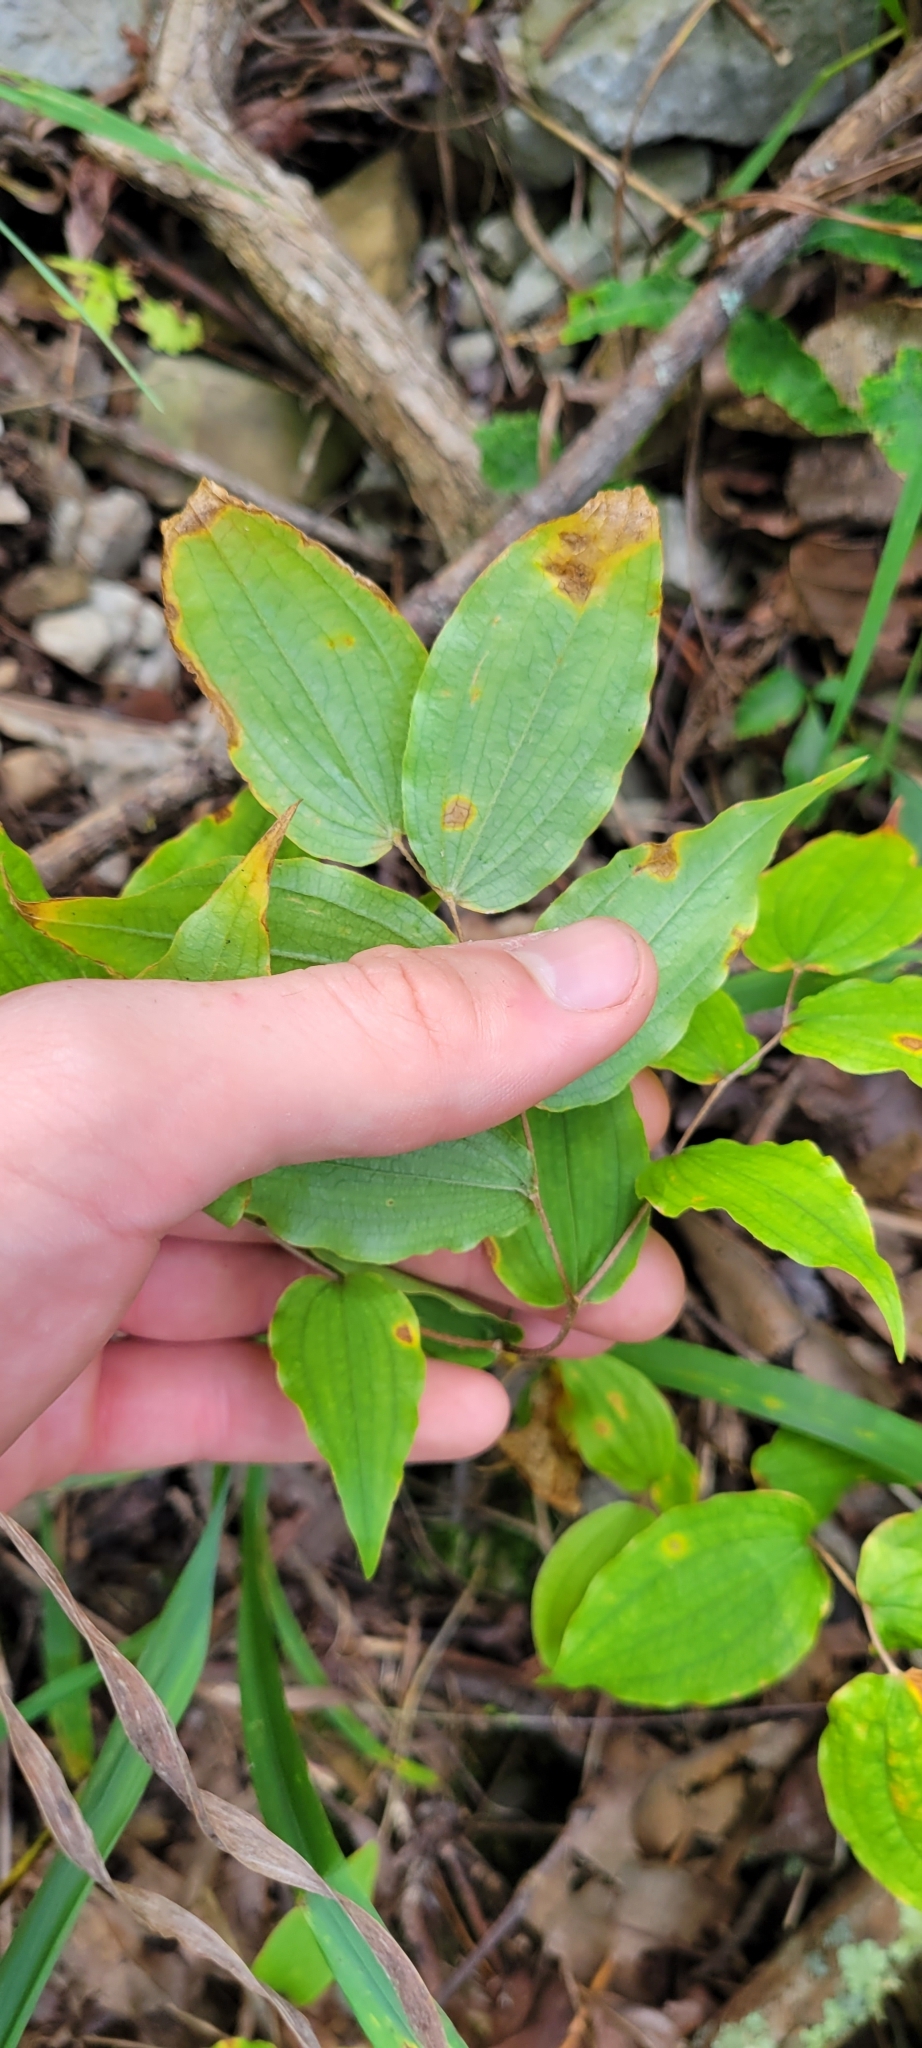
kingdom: Plantae
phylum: Tracheophyta
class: Liliopsida
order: Liliales
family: Liliaceae
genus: Prosartes
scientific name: Prosartes lanuginosa
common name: Hairy mandarin
